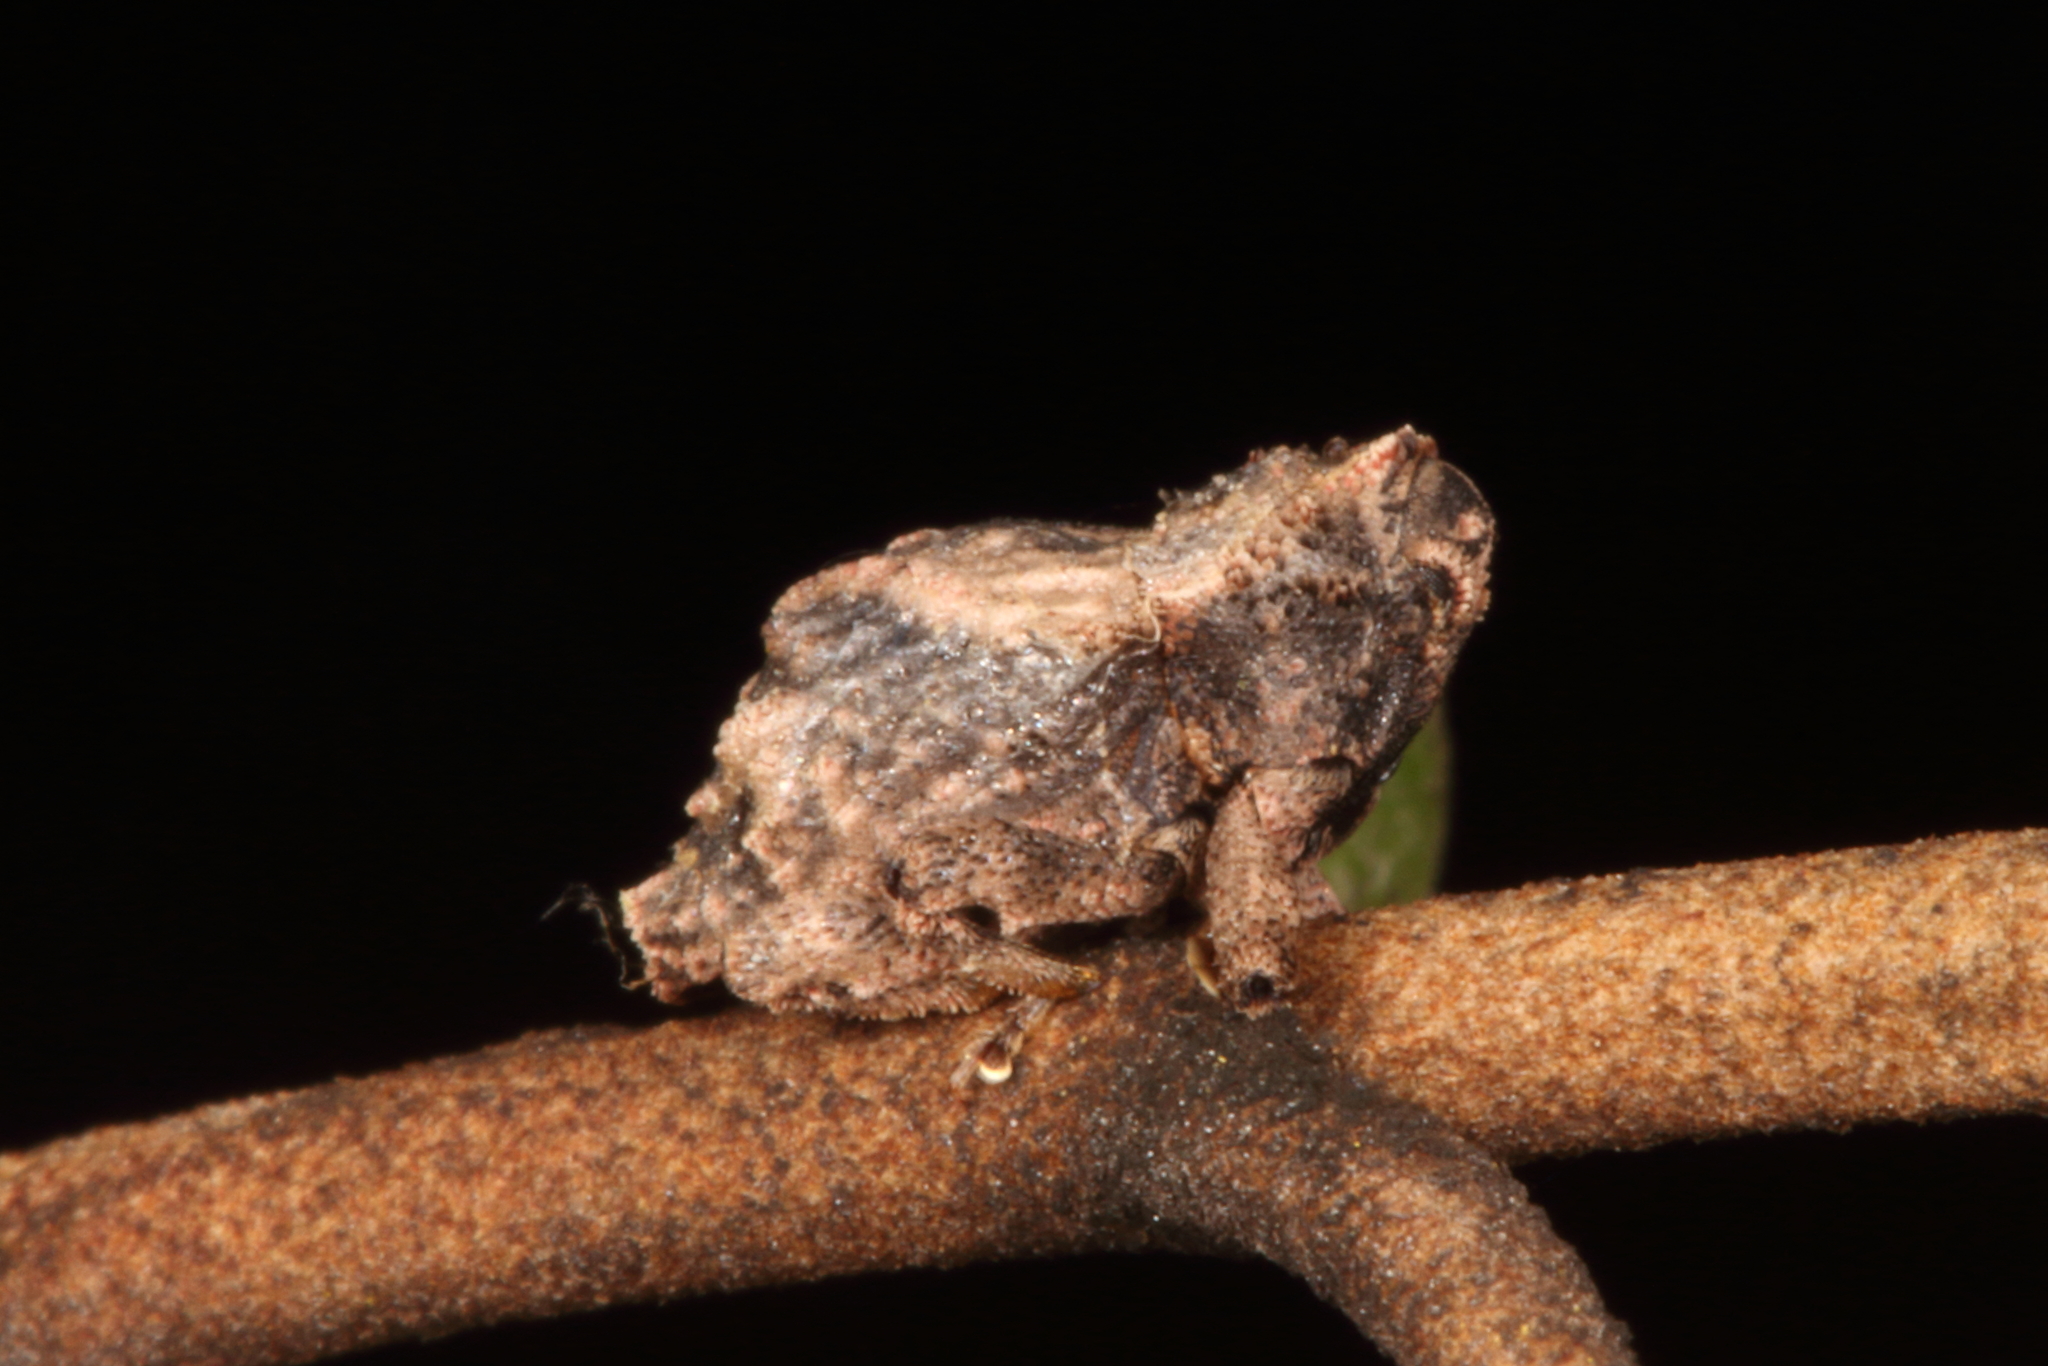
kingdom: Animalia
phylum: Arthropoda
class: Insecta
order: Coleoptera
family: Curculionidae
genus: Tychanus
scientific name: Tychanus verrucosus
